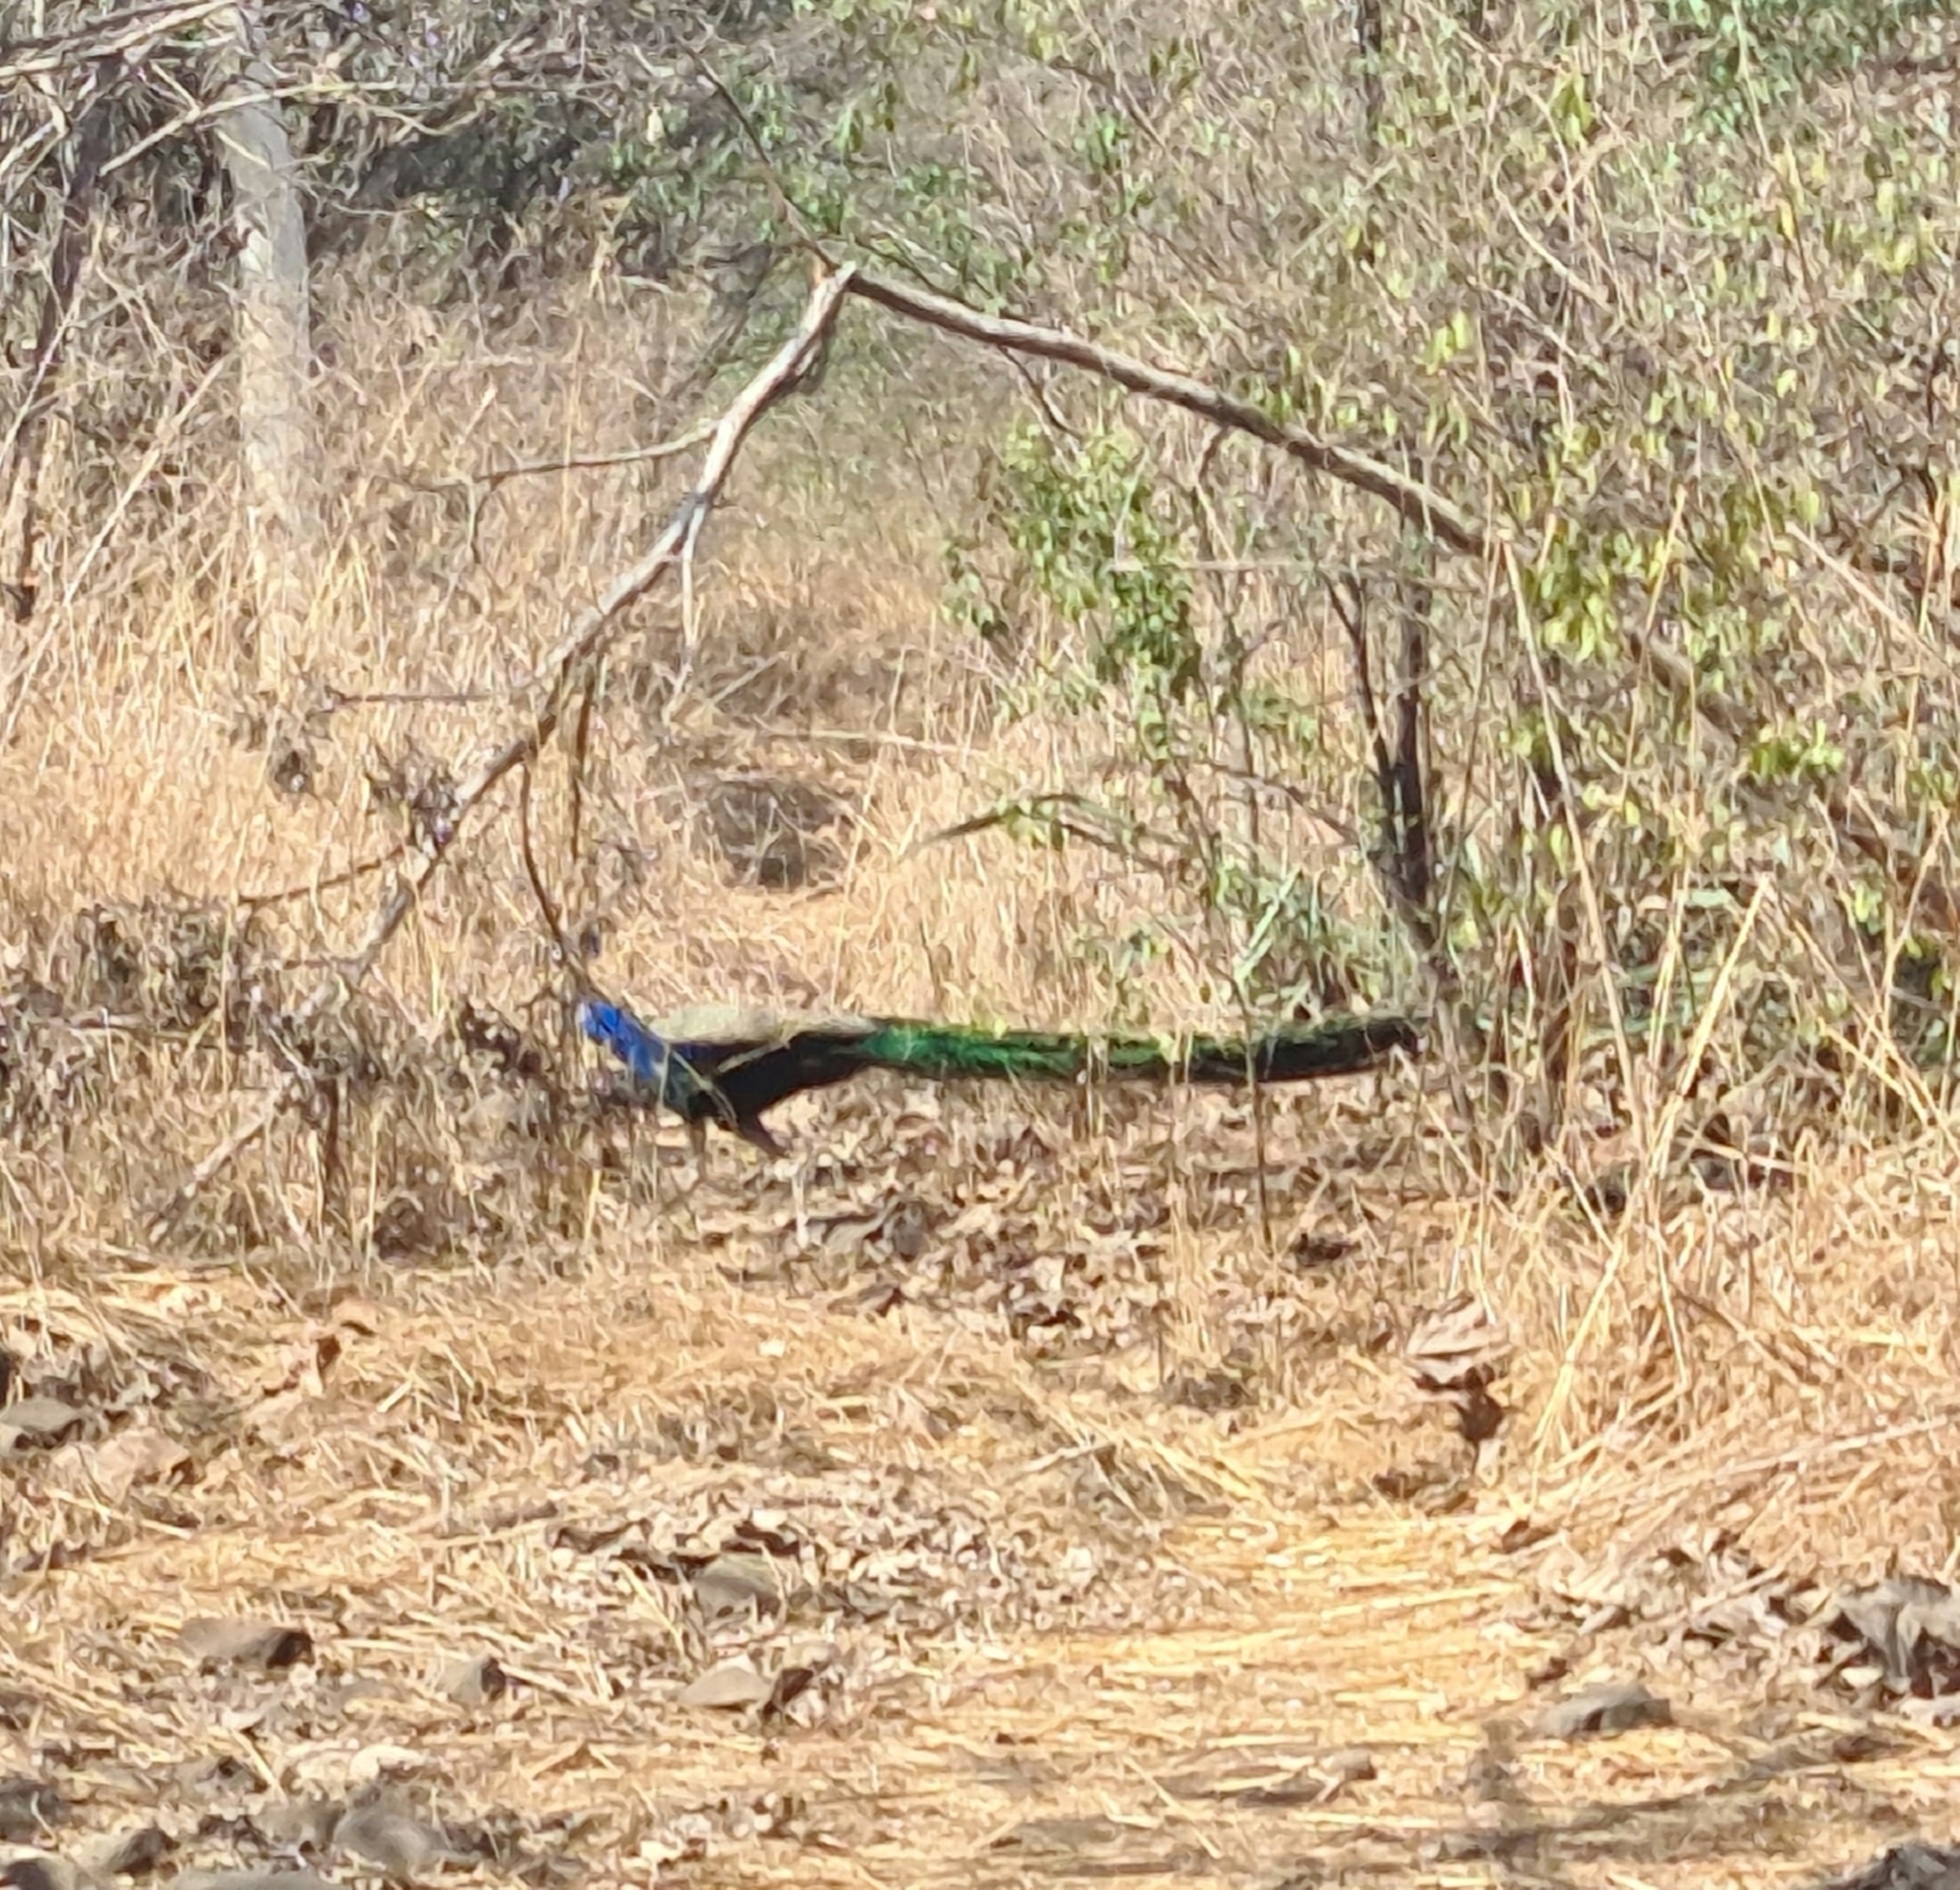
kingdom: Animalia
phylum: Chordata
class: Aves
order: Galliformes
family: Phasianidae
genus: Pavo
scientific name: Pavo cristatus
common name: Indian peafowl
